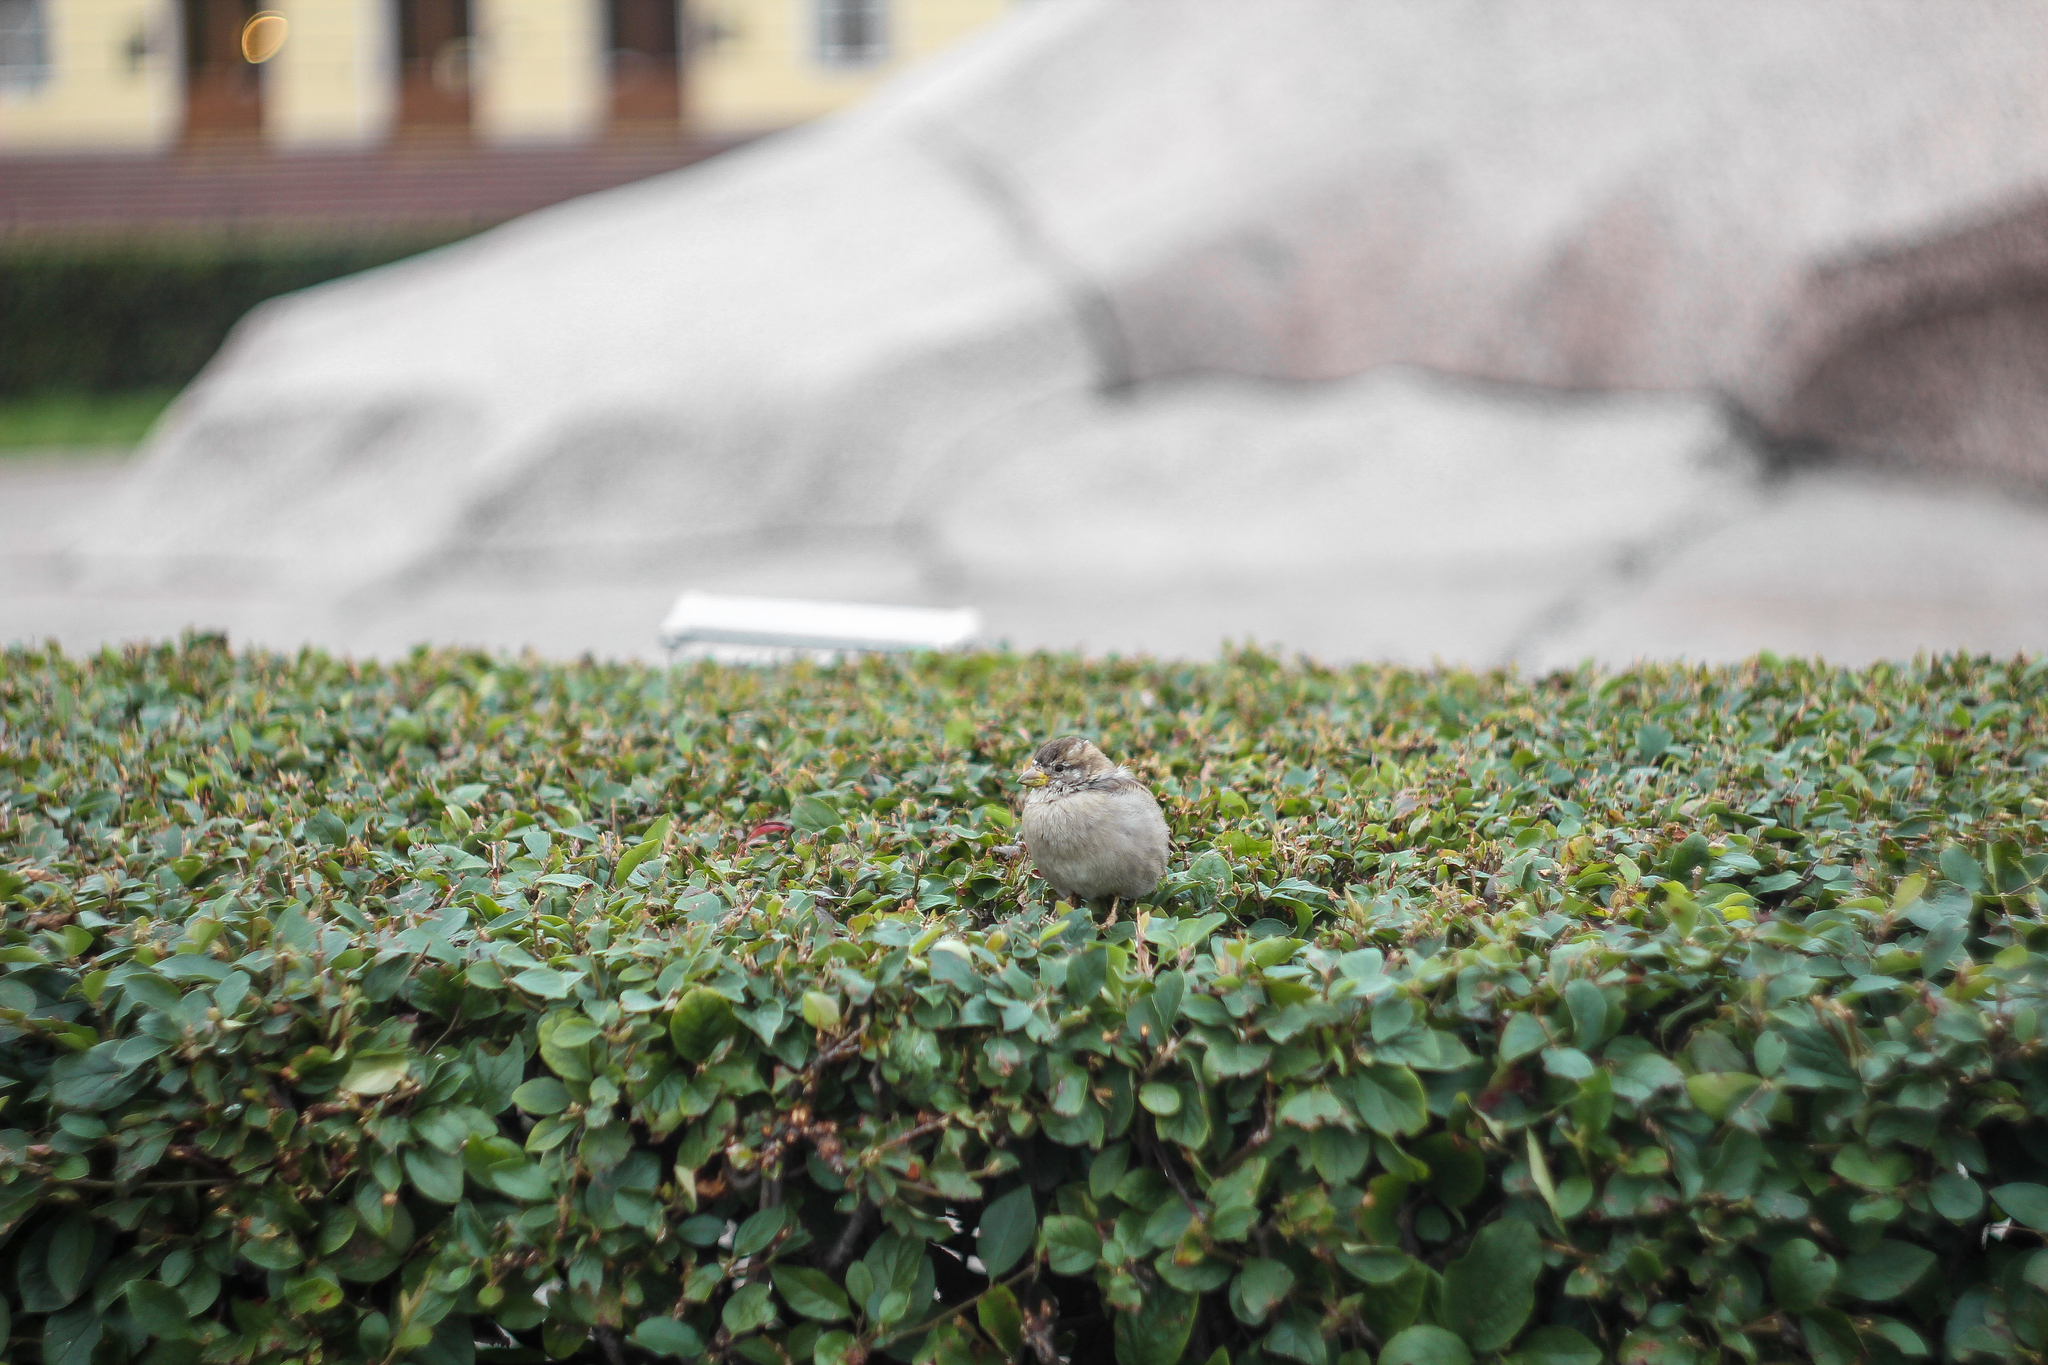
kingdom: Animalia
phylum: Chordata
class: Aves
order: Passeriformes
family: Passeridae
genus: Passer
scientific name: Passer domesticus
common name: House sparrow
